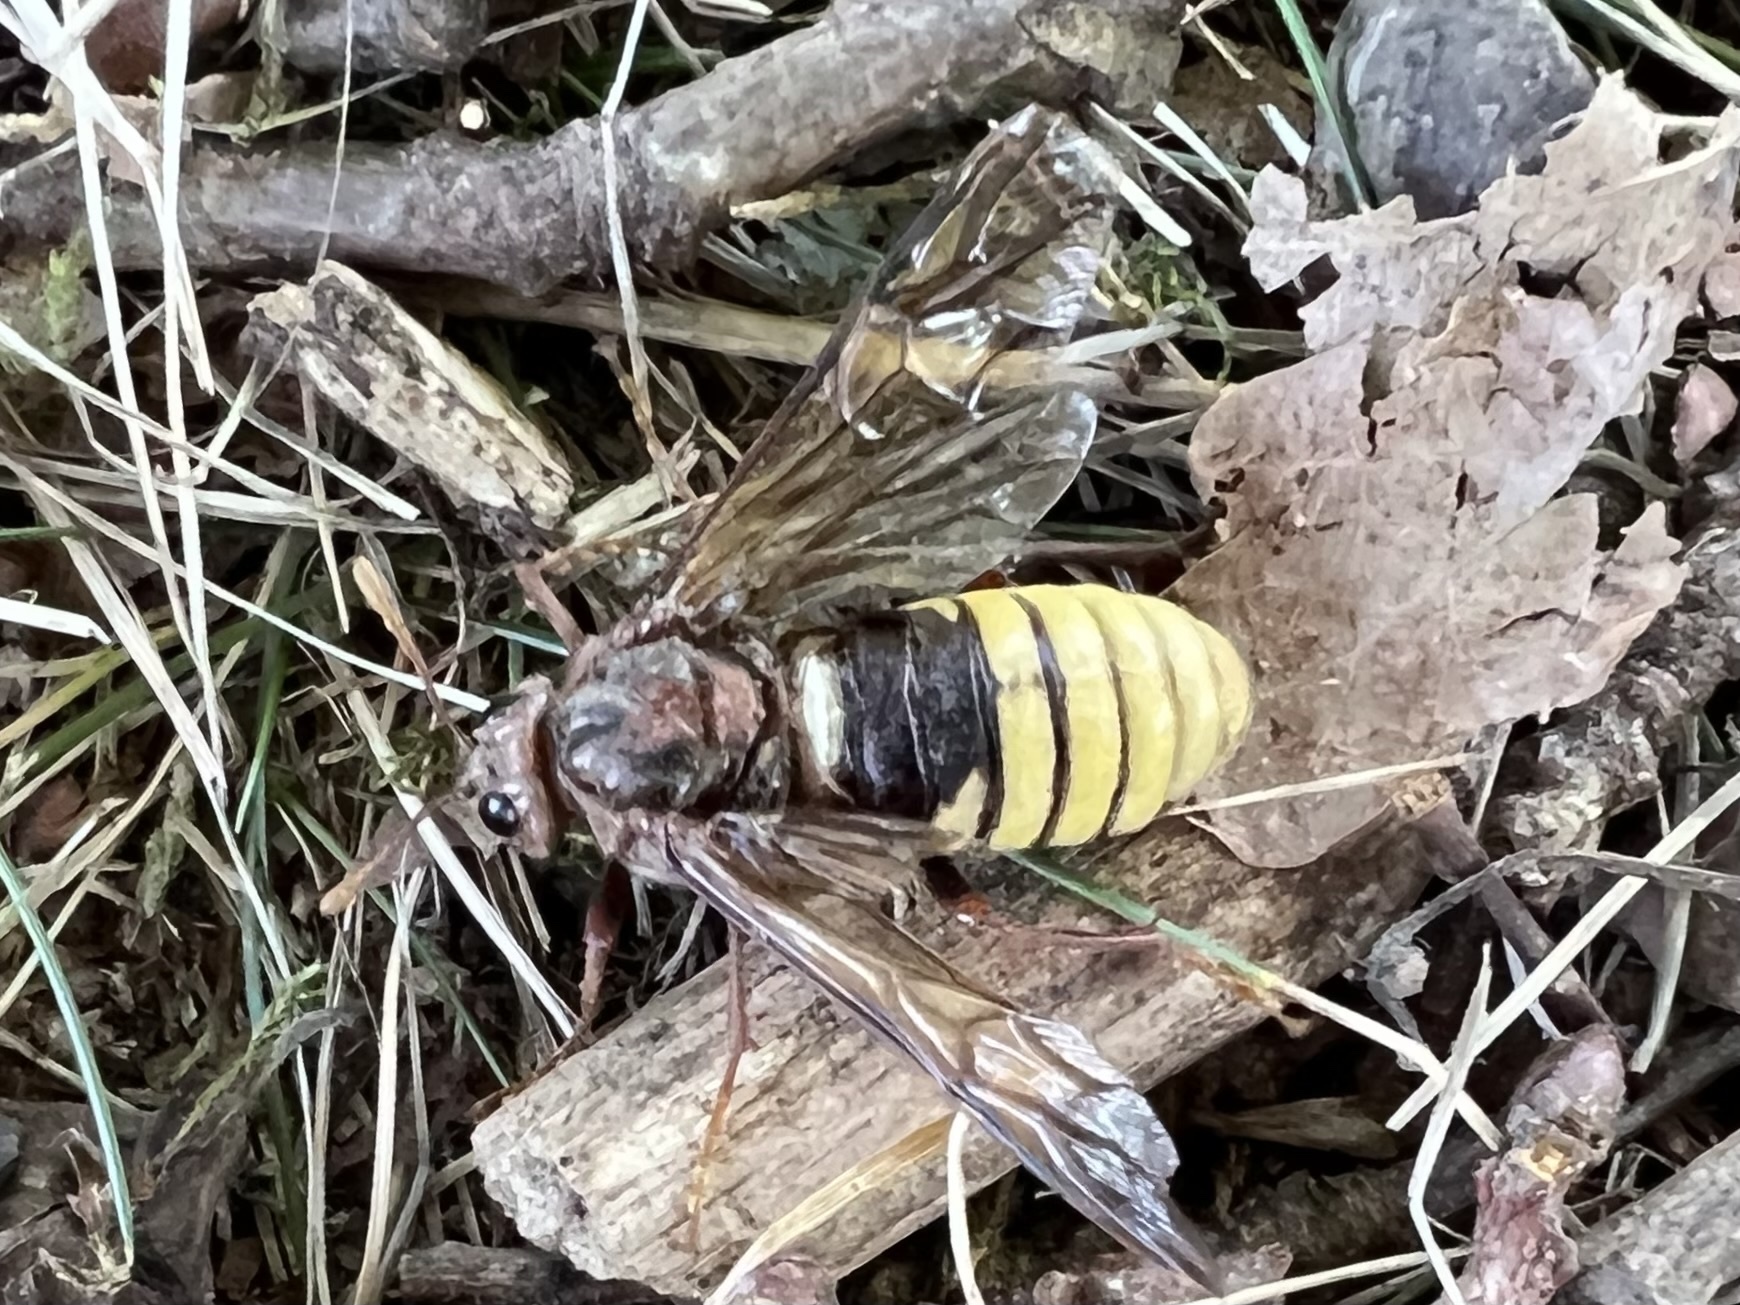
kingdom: Animalia
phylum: Arthropoda
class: Insecta
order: Hymenoptera
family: Cimbicidae
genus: Cimbex
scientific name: Cimbex connatus
